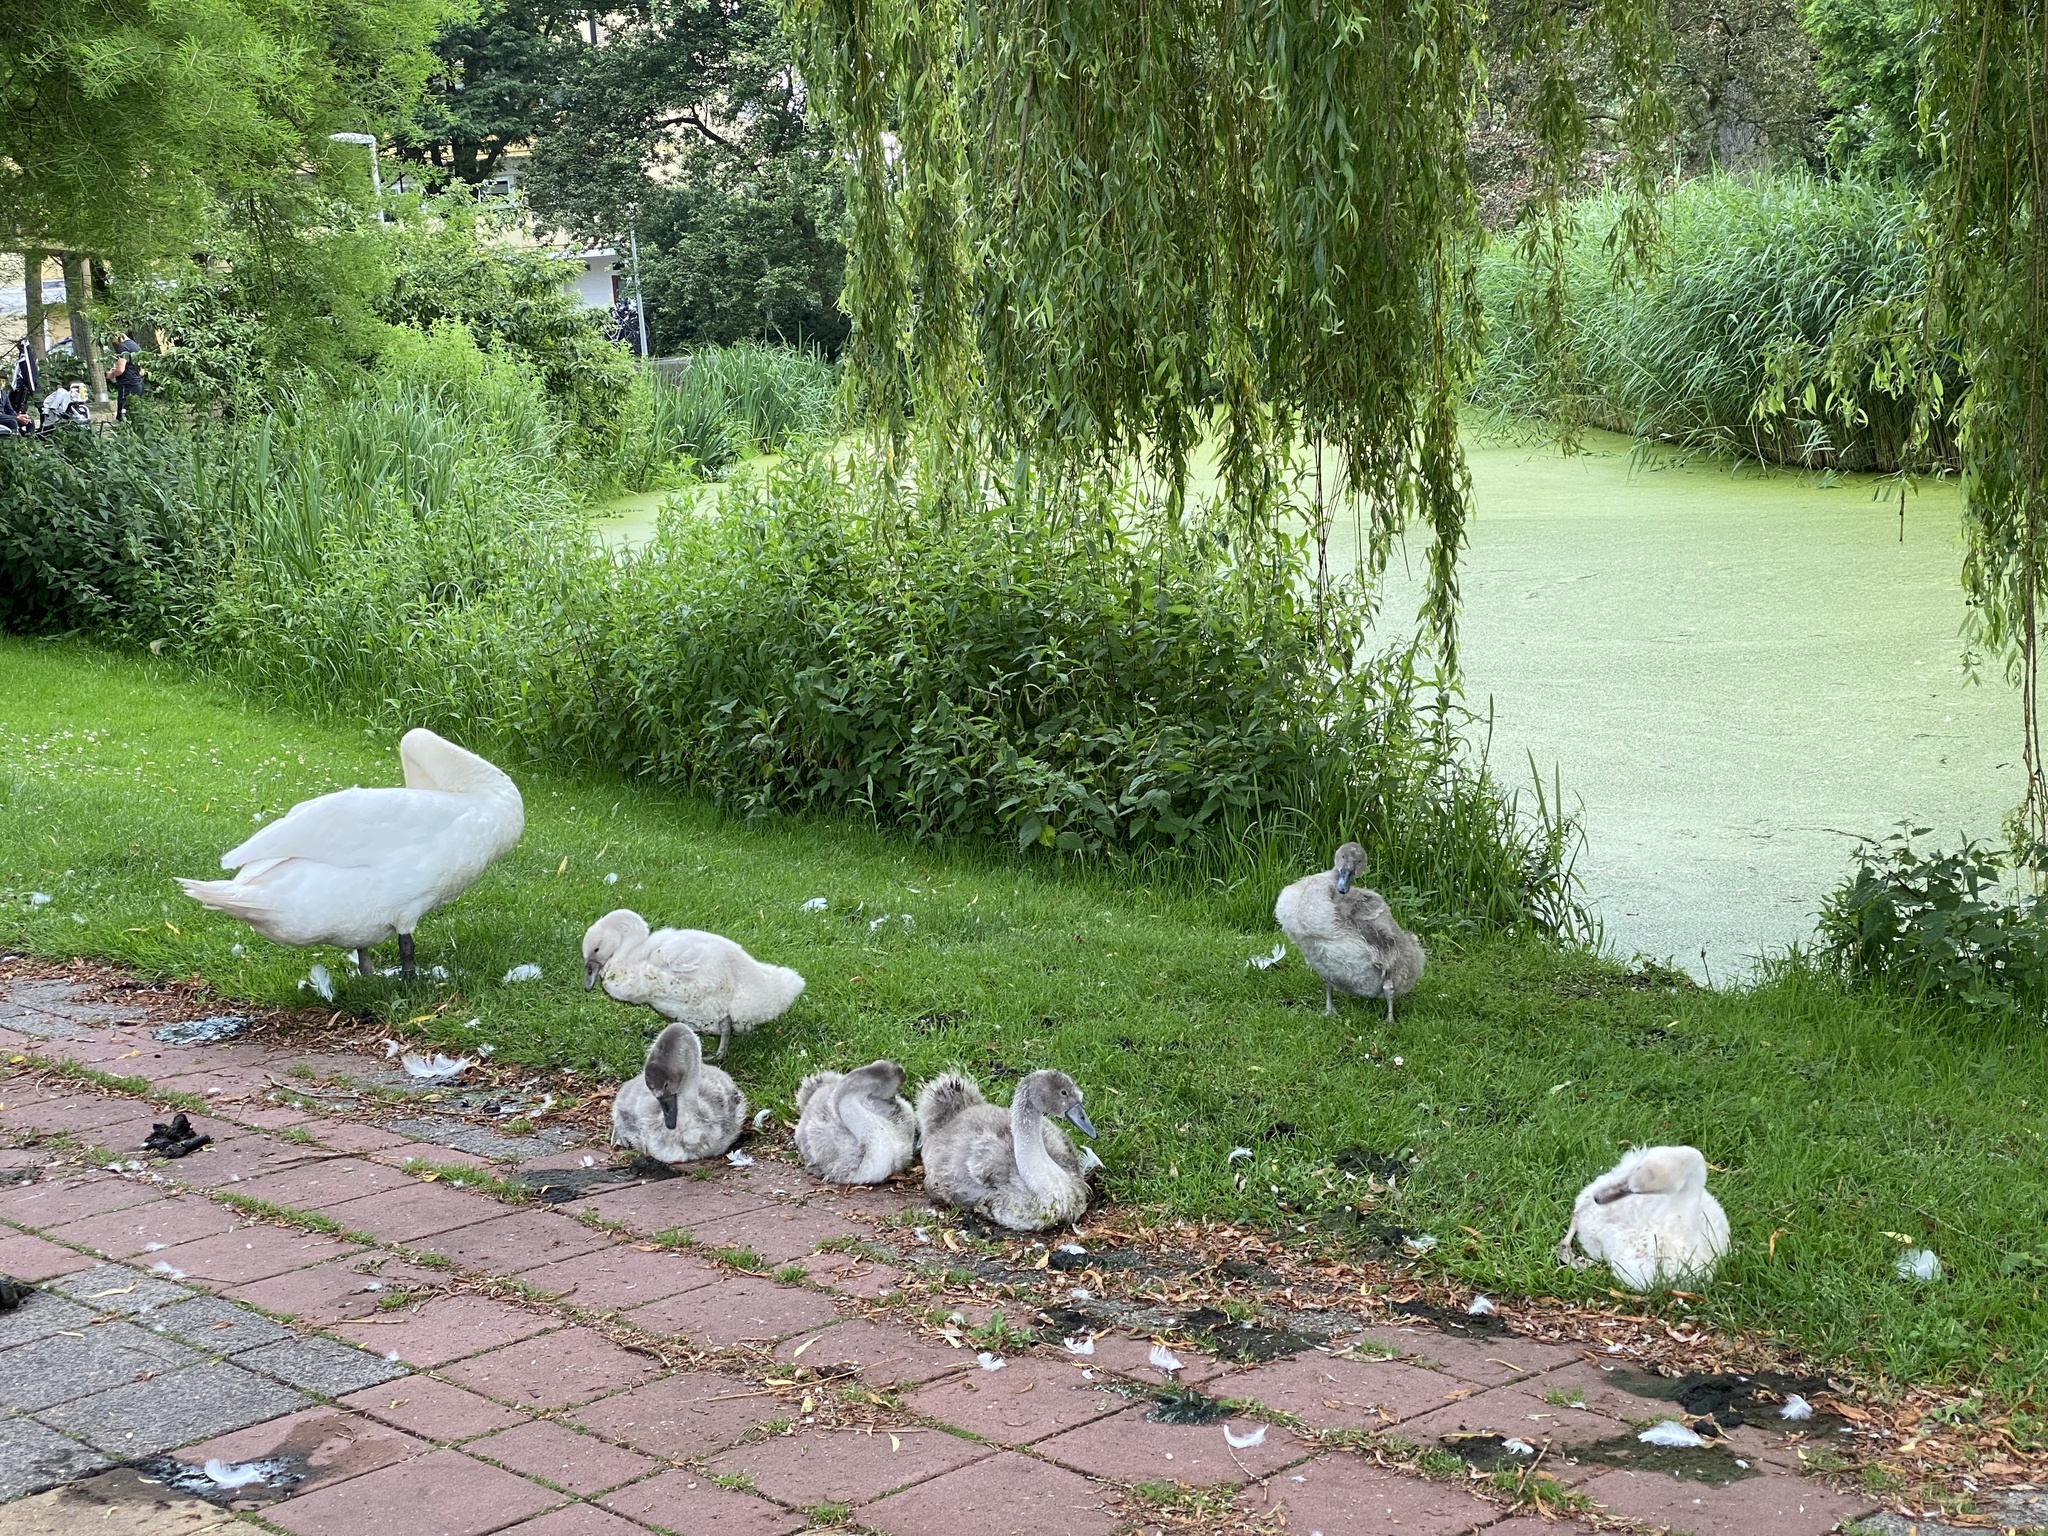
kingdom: Animalia
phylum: Chordata
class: Aves
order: Anseriformes
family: Anatidae
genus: Cygnus
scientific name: Cygnus olor
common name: Mute swan
